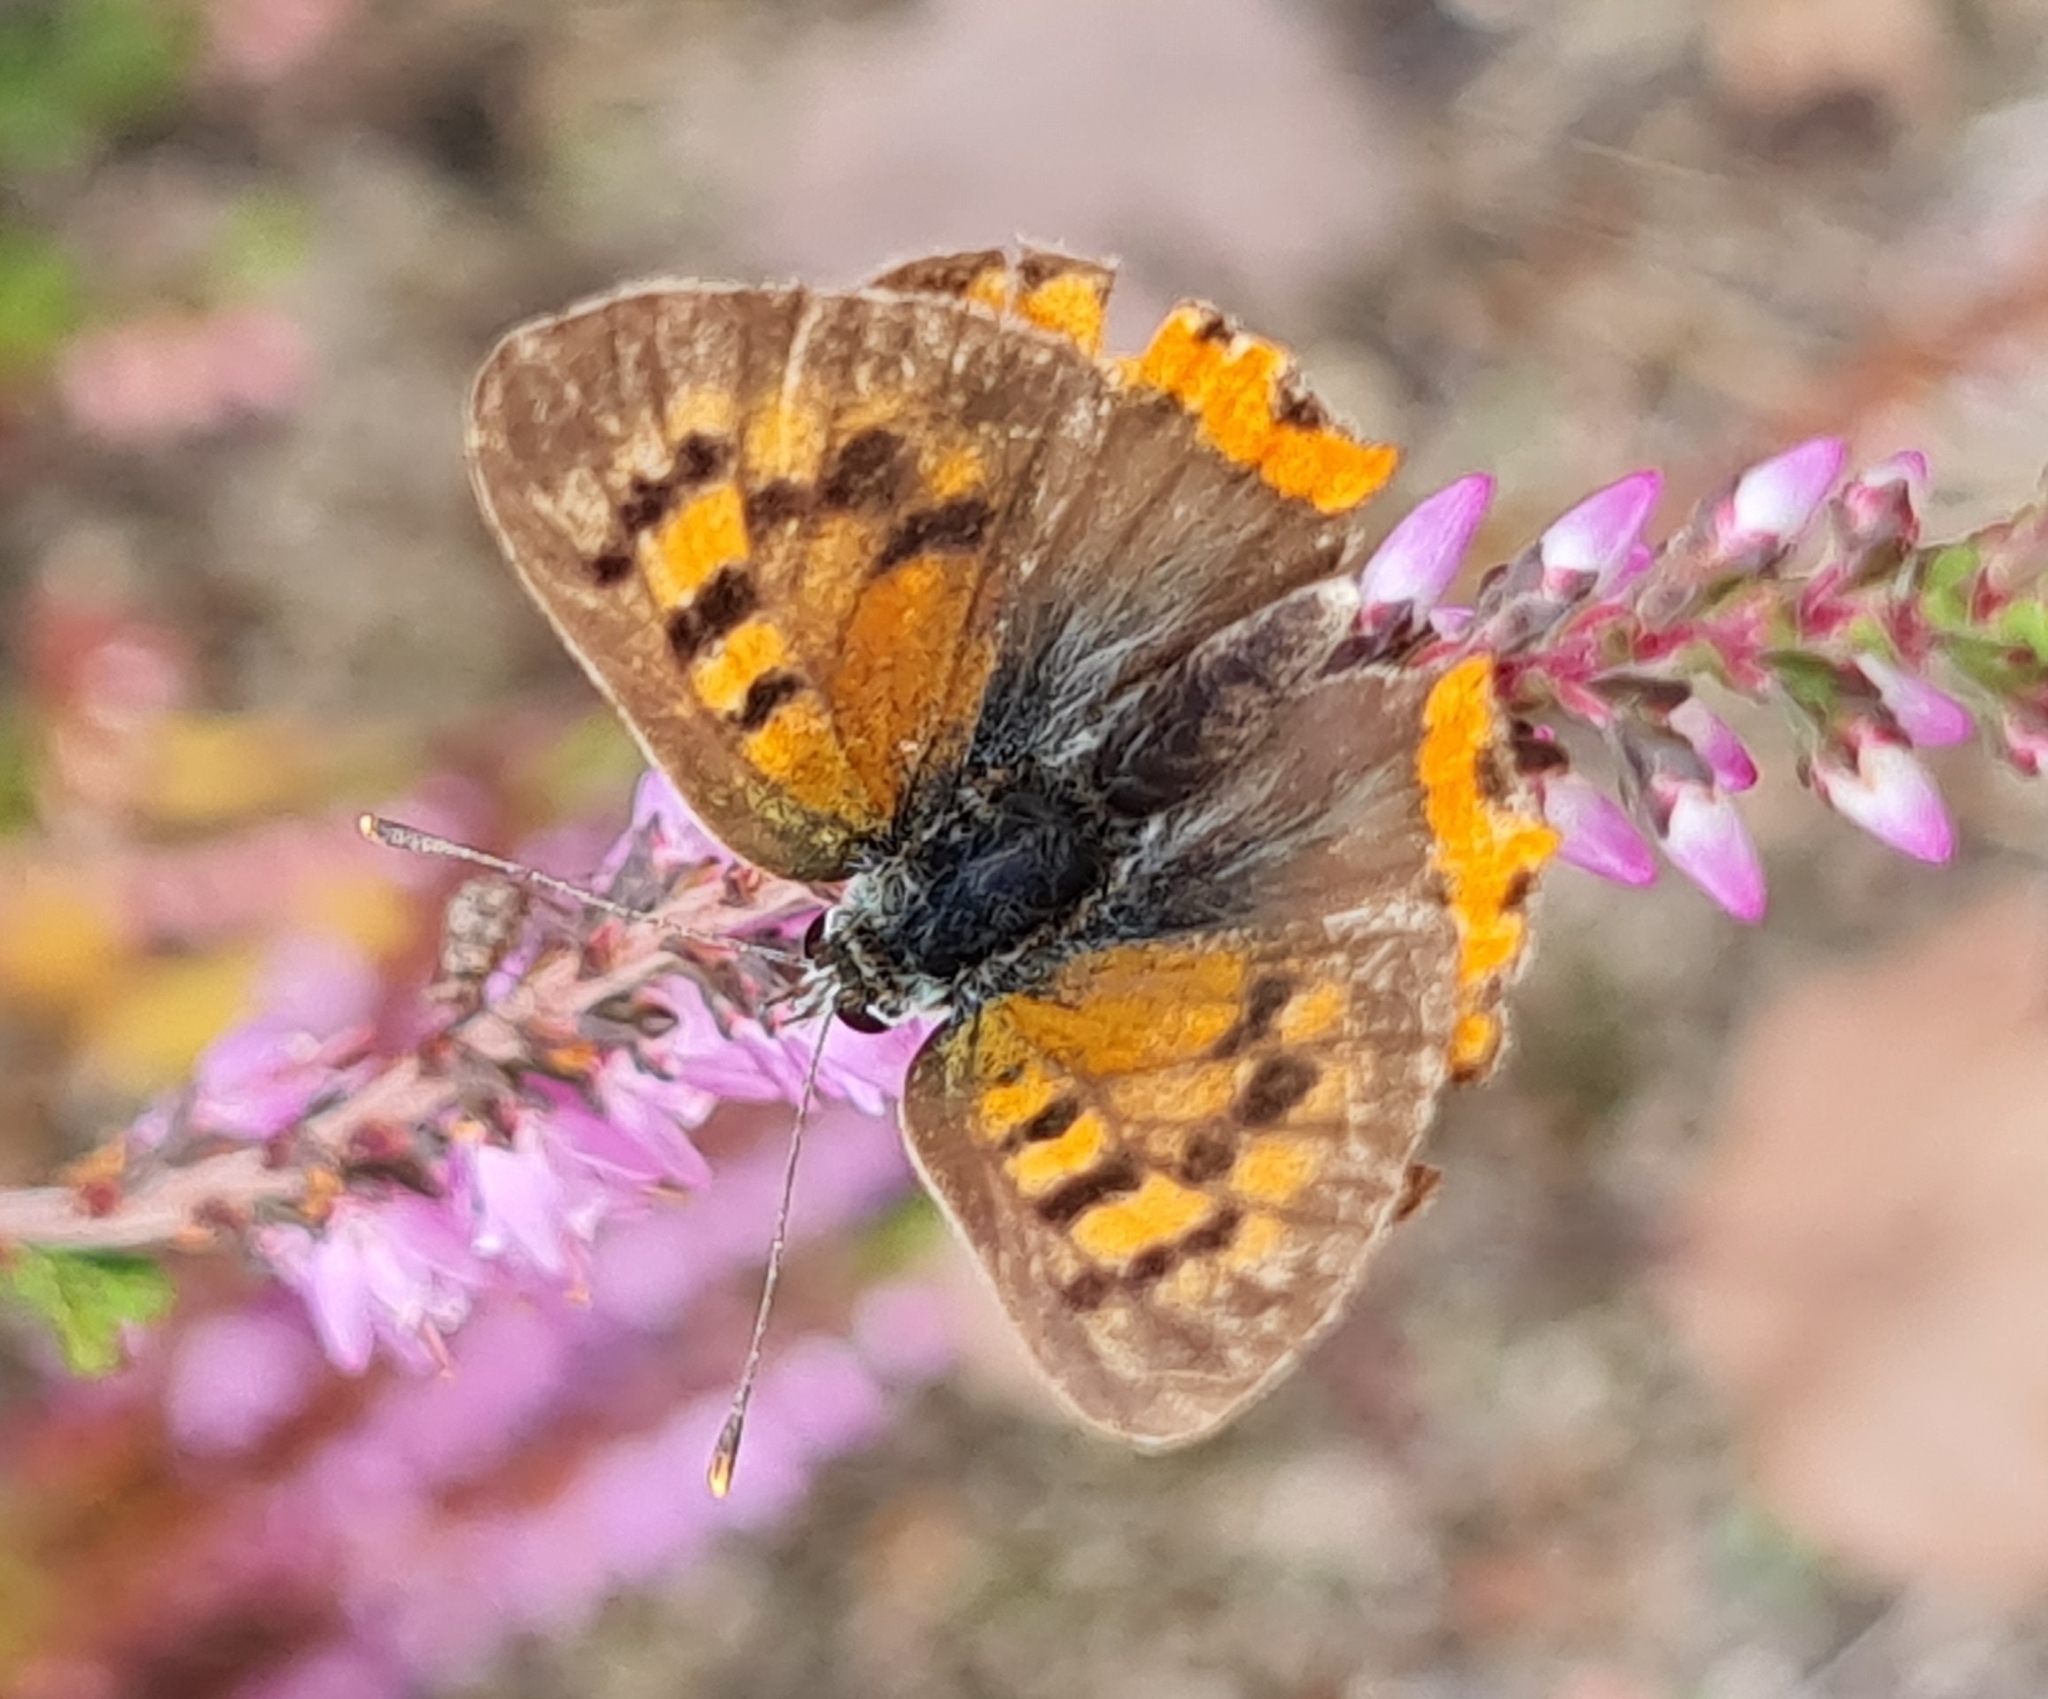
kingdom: Animalia
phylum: Arthropoda
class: Insecta
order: Lepidoptera
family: Lycaenidae
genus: Lycaena
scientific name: Lycaena phlaeas
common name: Small copper
